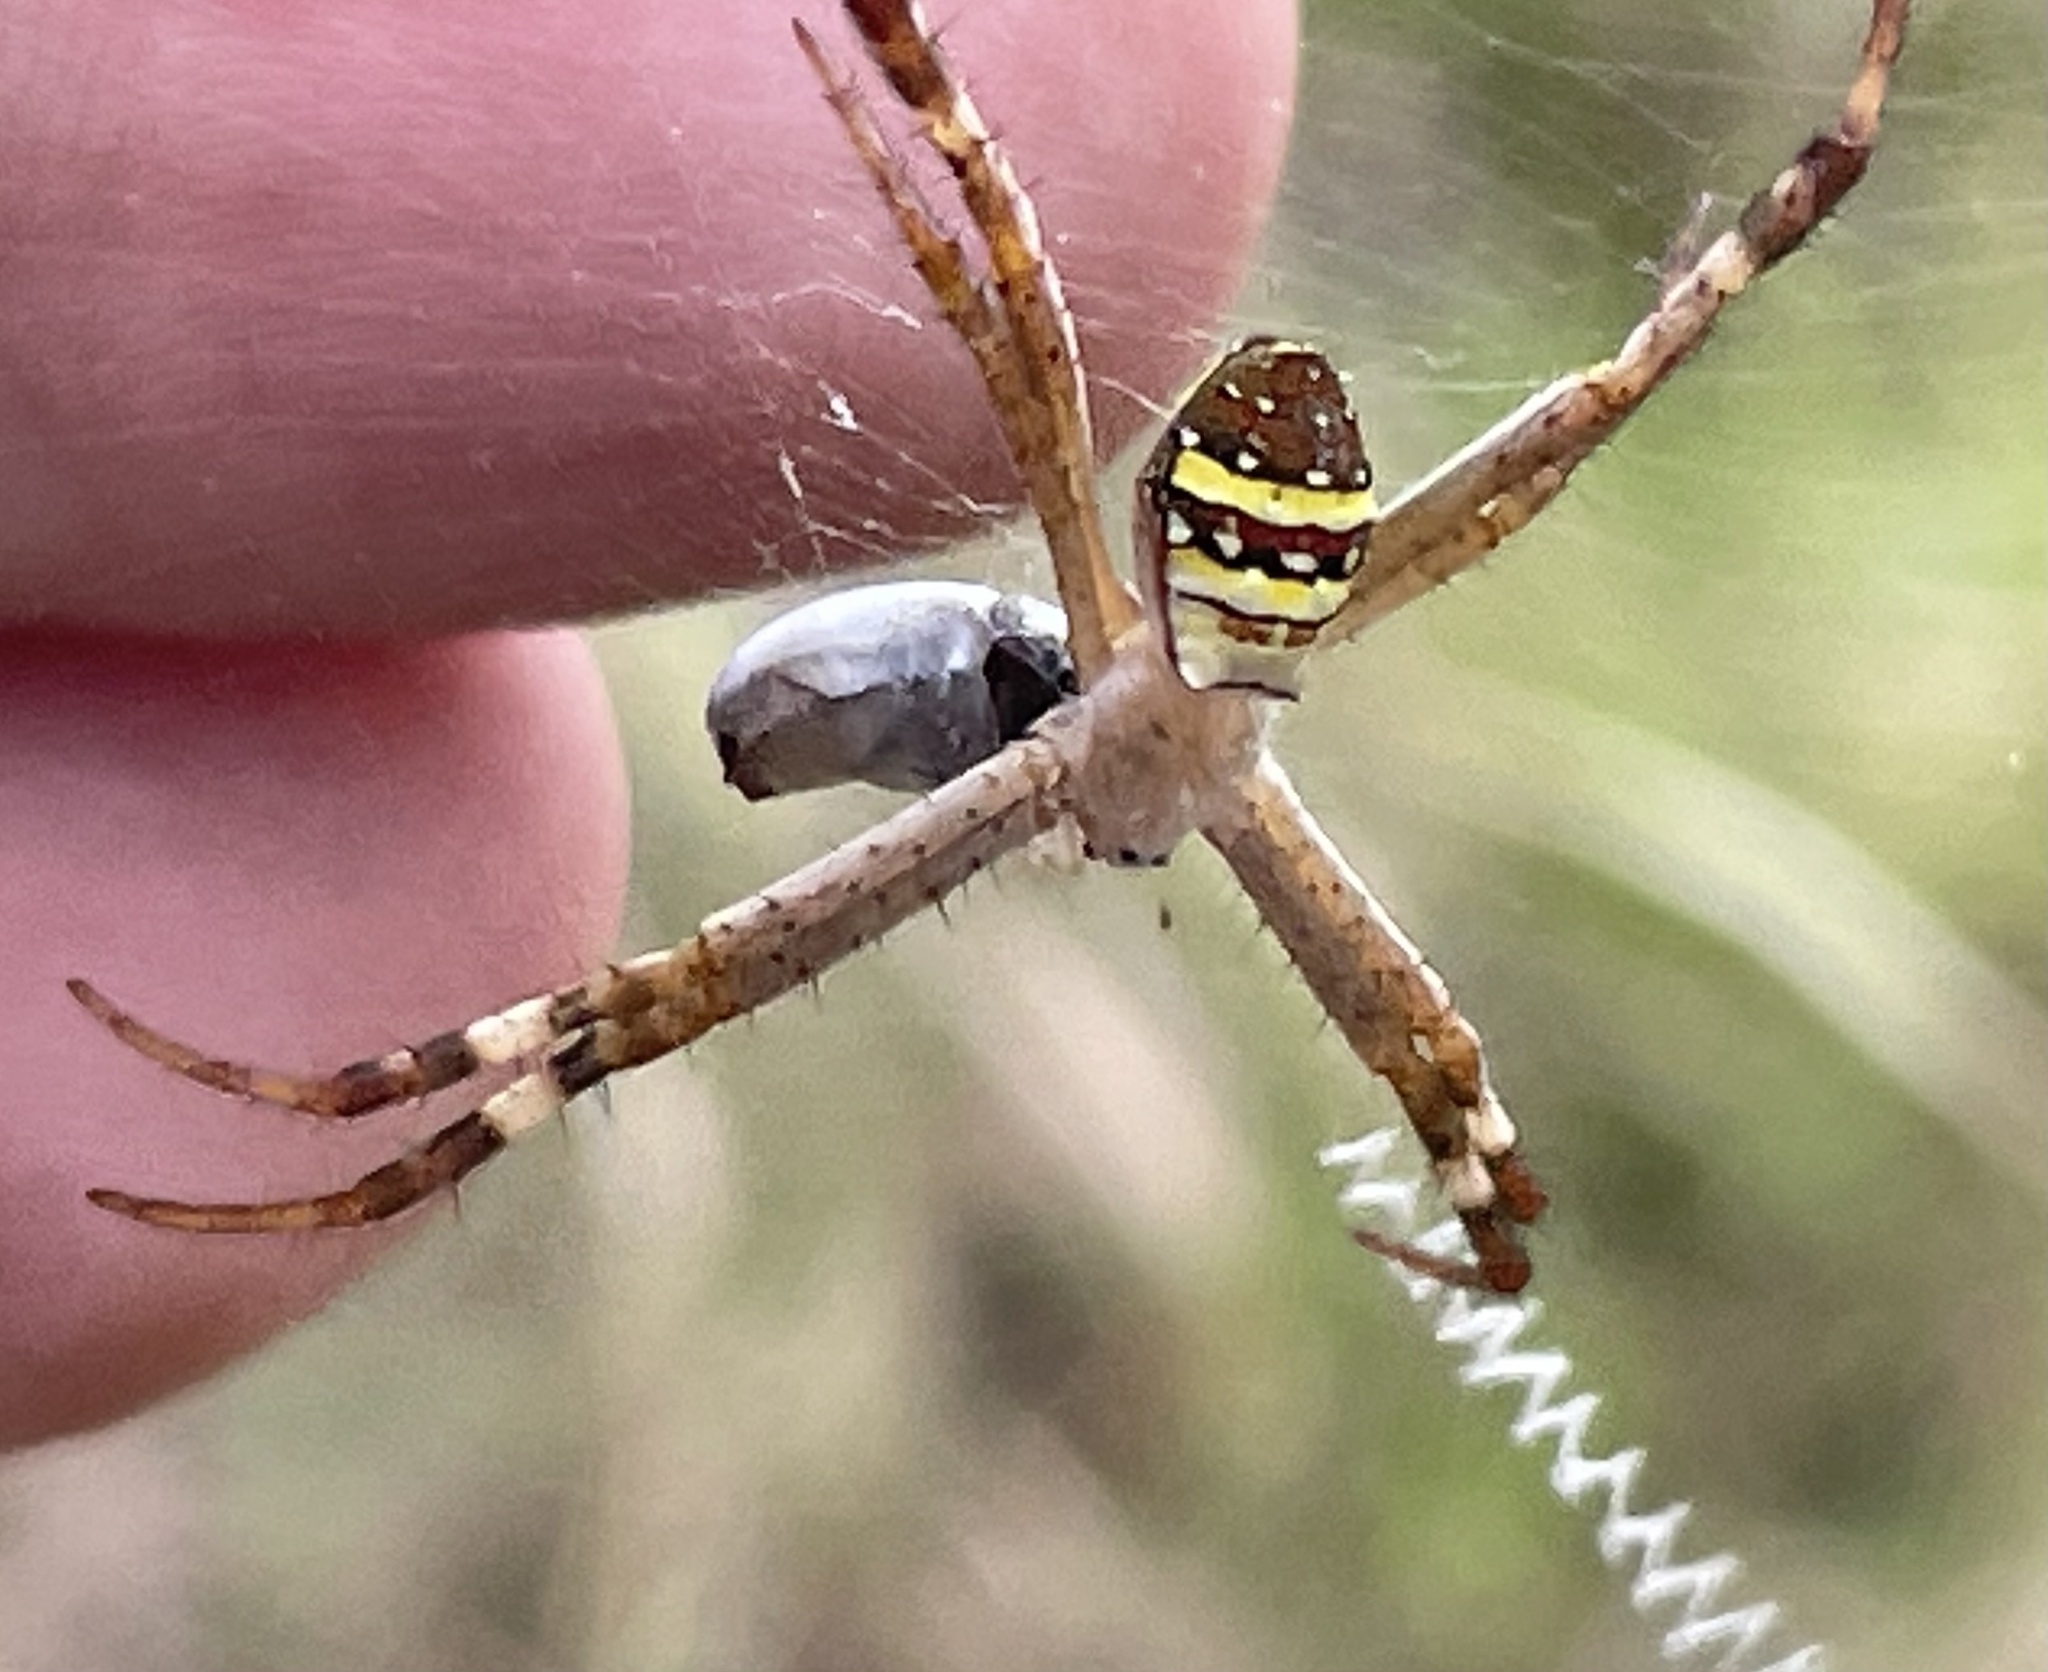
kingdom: Animalia
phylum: Arthropoda
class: Arachnida
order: Araneae
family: Araneidae
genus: Argiope
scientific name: Argiope keyserlingi
